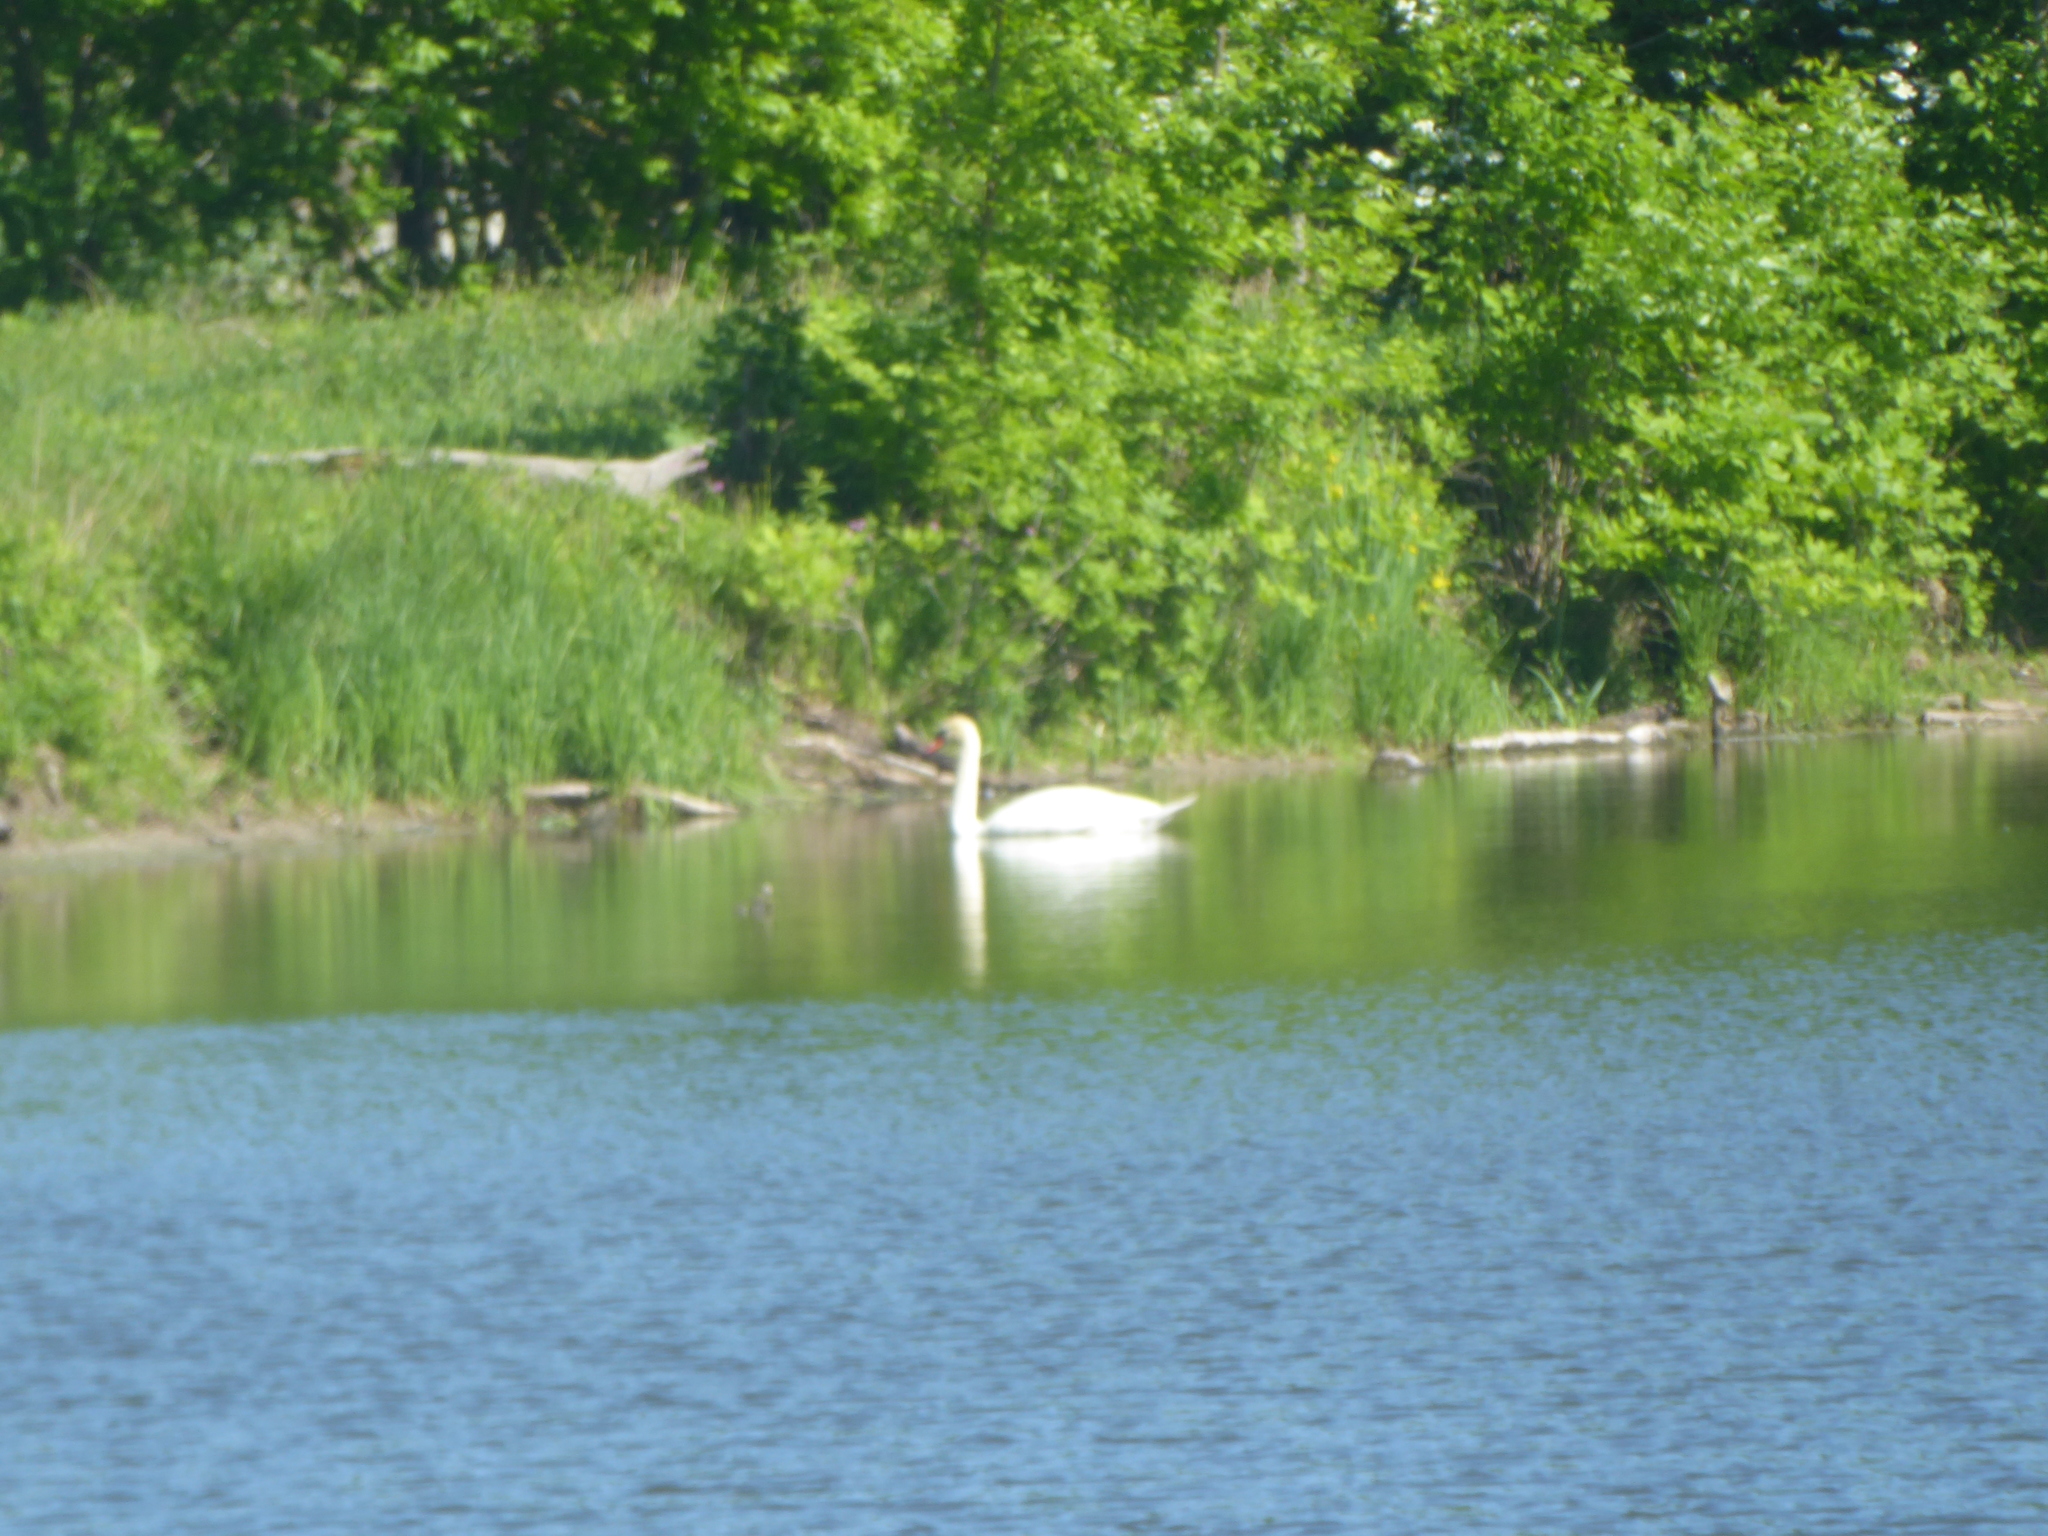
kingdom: Animalia
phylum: Chordata
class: Aves
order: Anseriformes
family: Anatidae
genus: Cygnus
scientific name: Cygnus olor
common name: Mute swan
